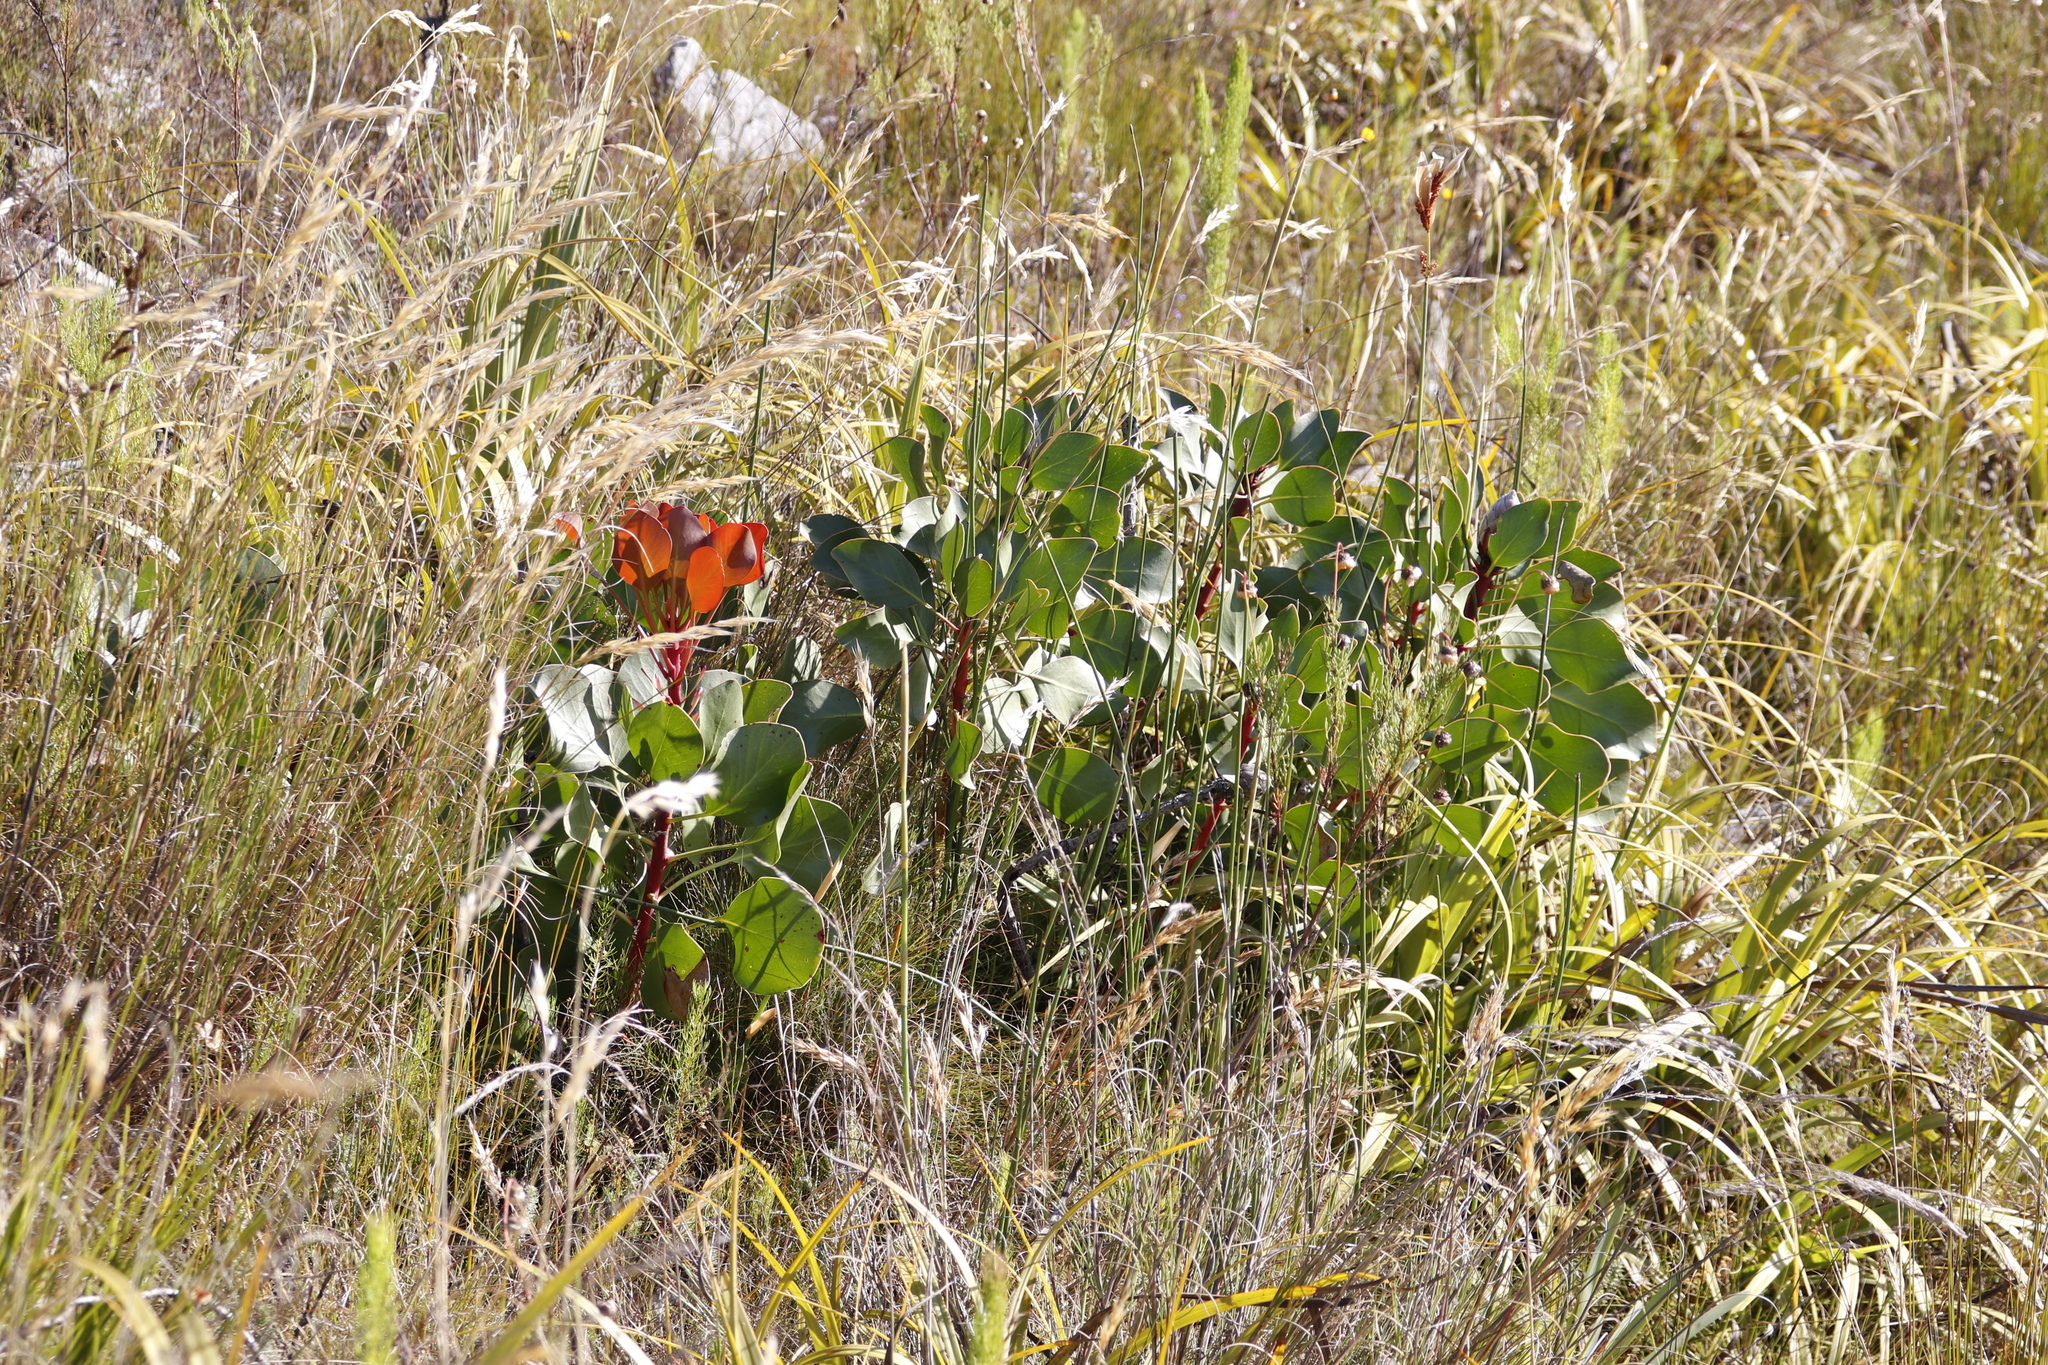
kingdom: Plantae
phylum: Tracheophyta
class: Magnoliopsida
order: Proteales
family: Proteaceae
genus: Protea
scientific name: Protea cynaroides
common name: King protea
